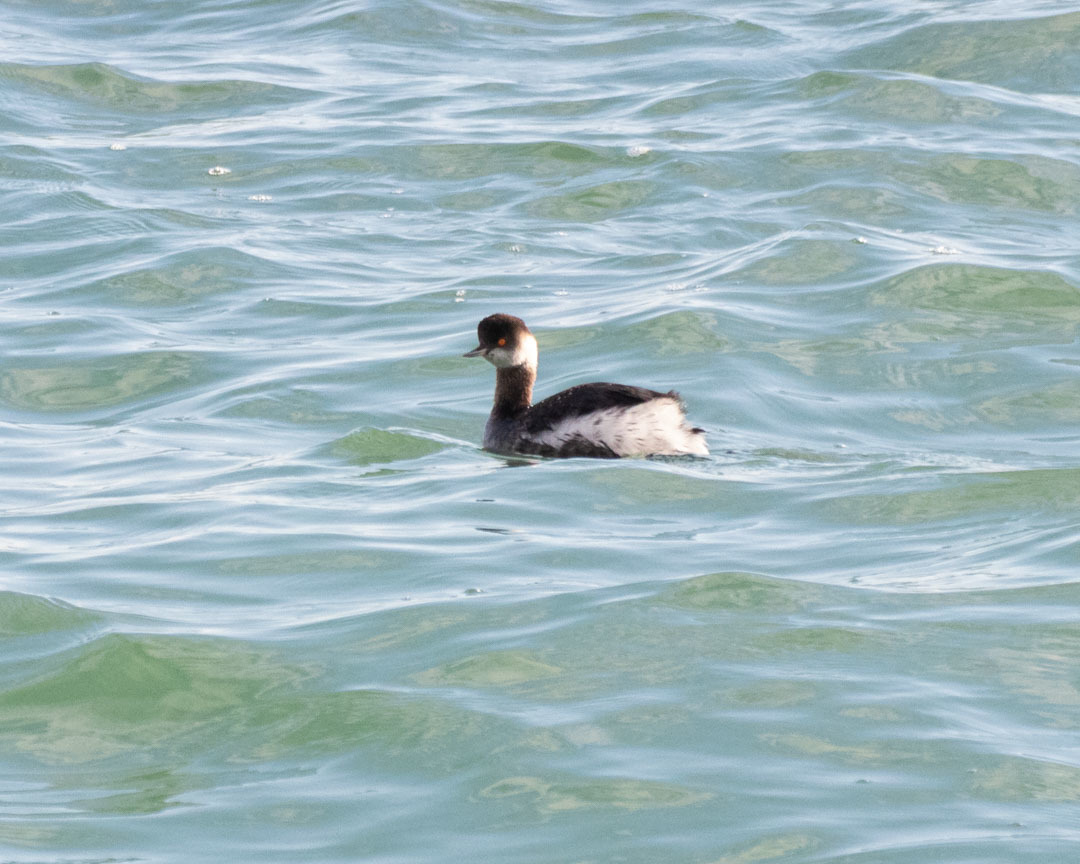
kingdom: Animalia
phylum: Chordata
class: Aves
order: Podicipediformes
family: Podicipedidae
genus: Podiceps
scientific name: Podiceps nigricollis
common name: Black-necked grebe
